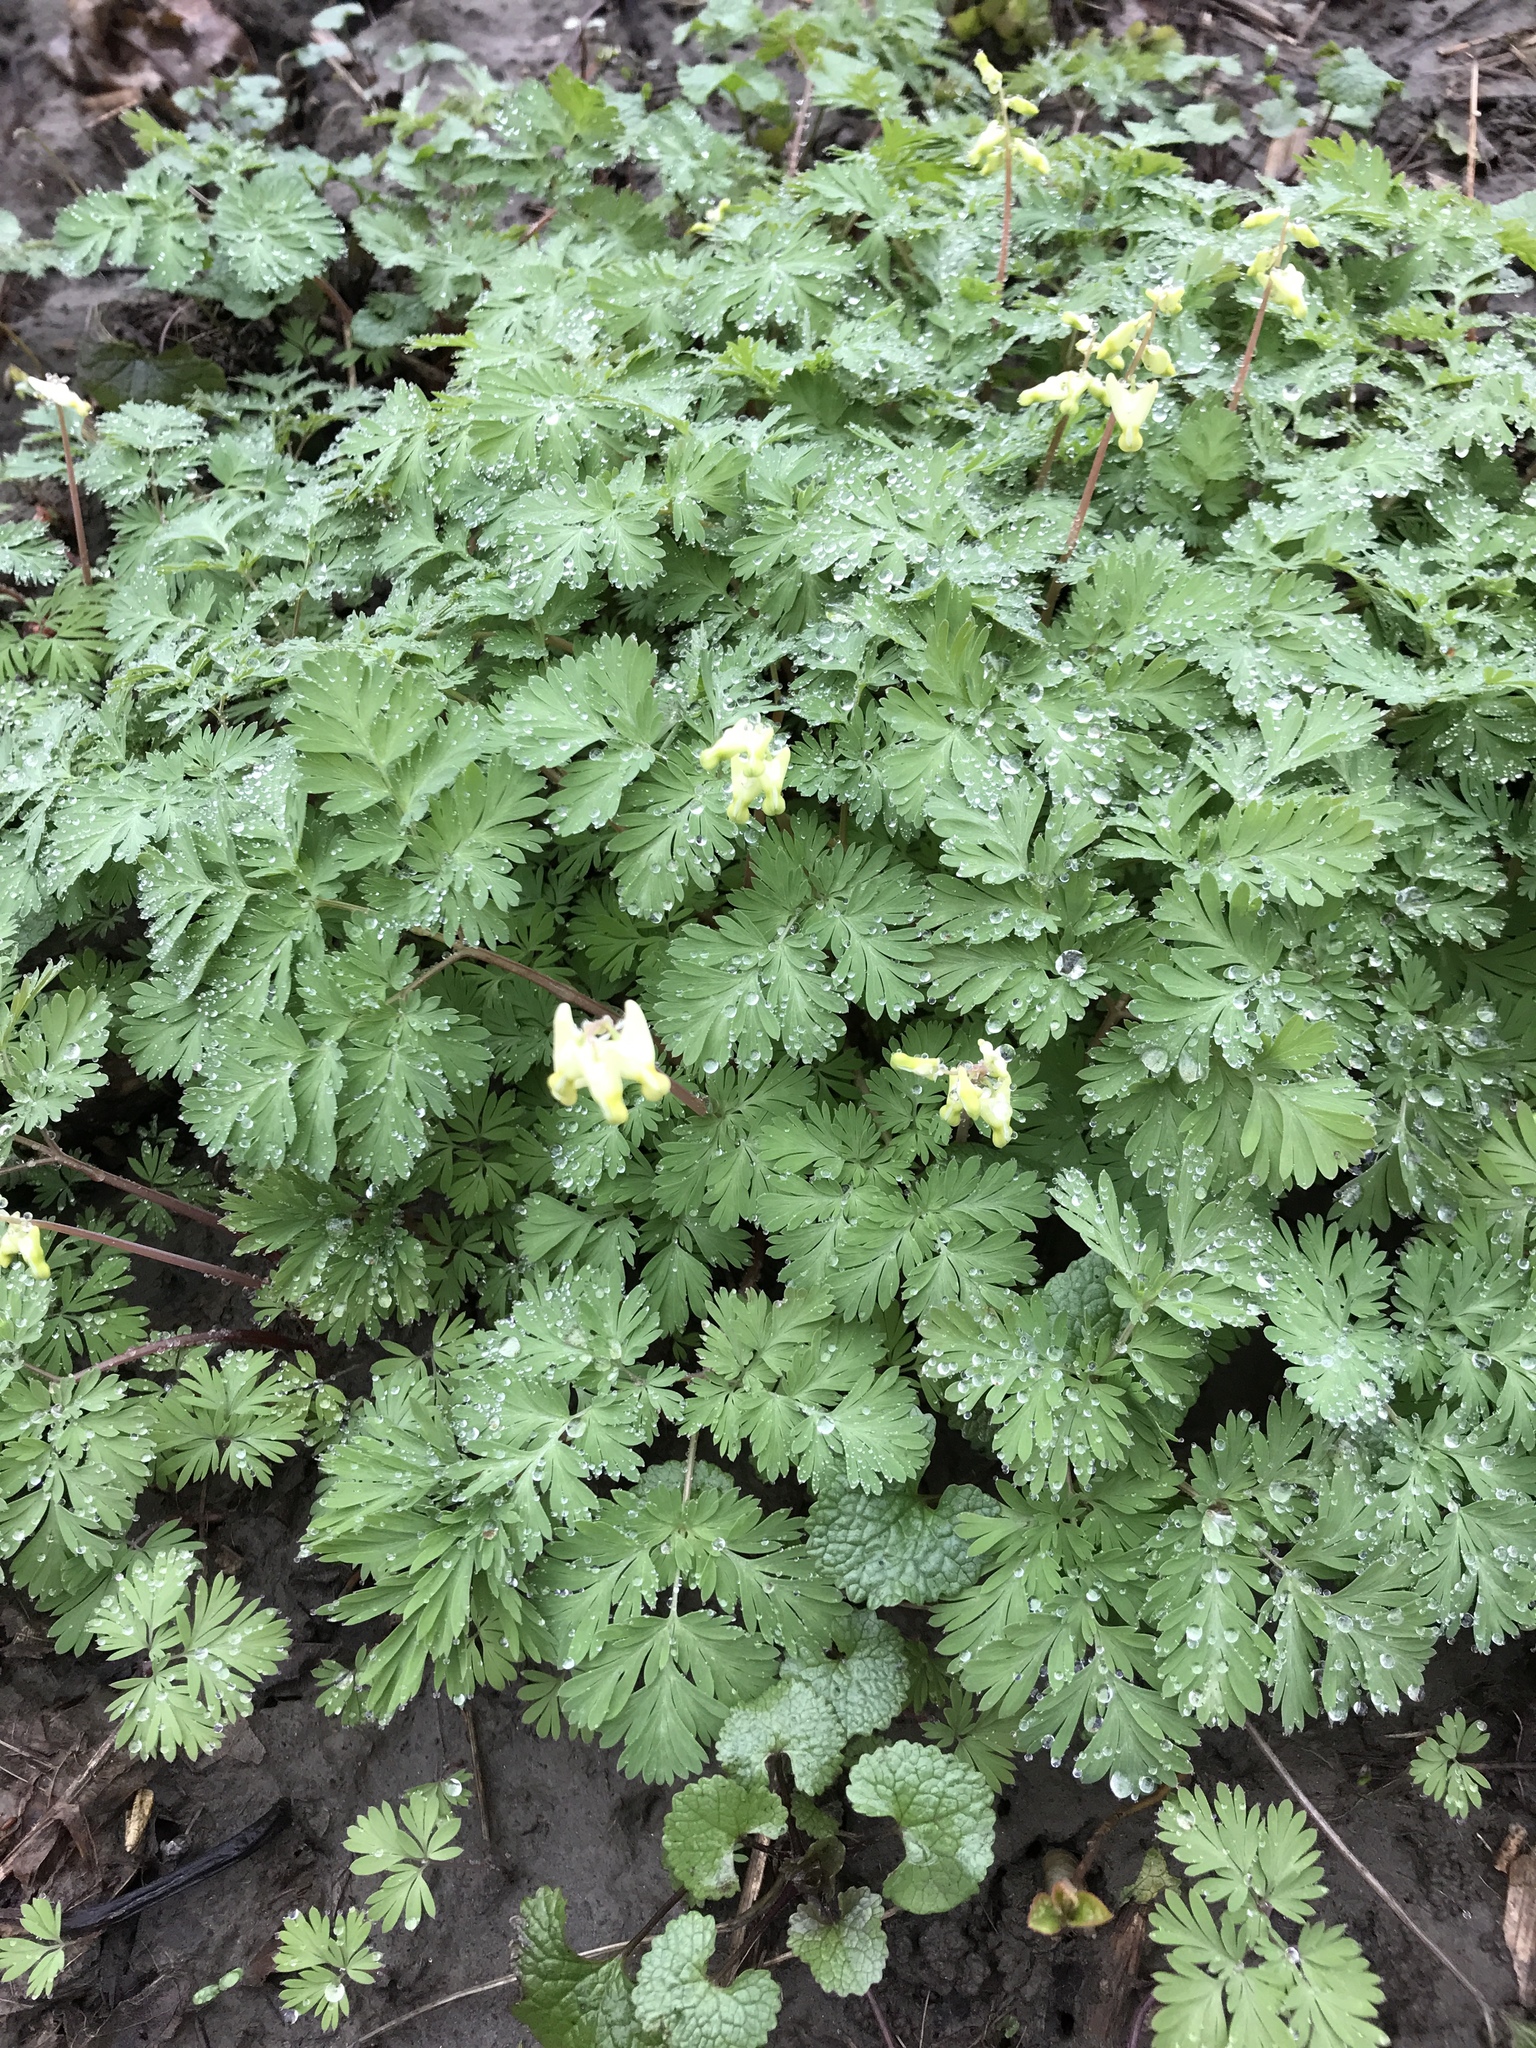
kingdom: Plantae
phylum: Tracheophyta
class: Magnoliopsida
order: Ranunculales
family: Papaveraceae
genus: Dicentra
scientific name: Dicentra cucullaria
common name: Dutchman's breeches
